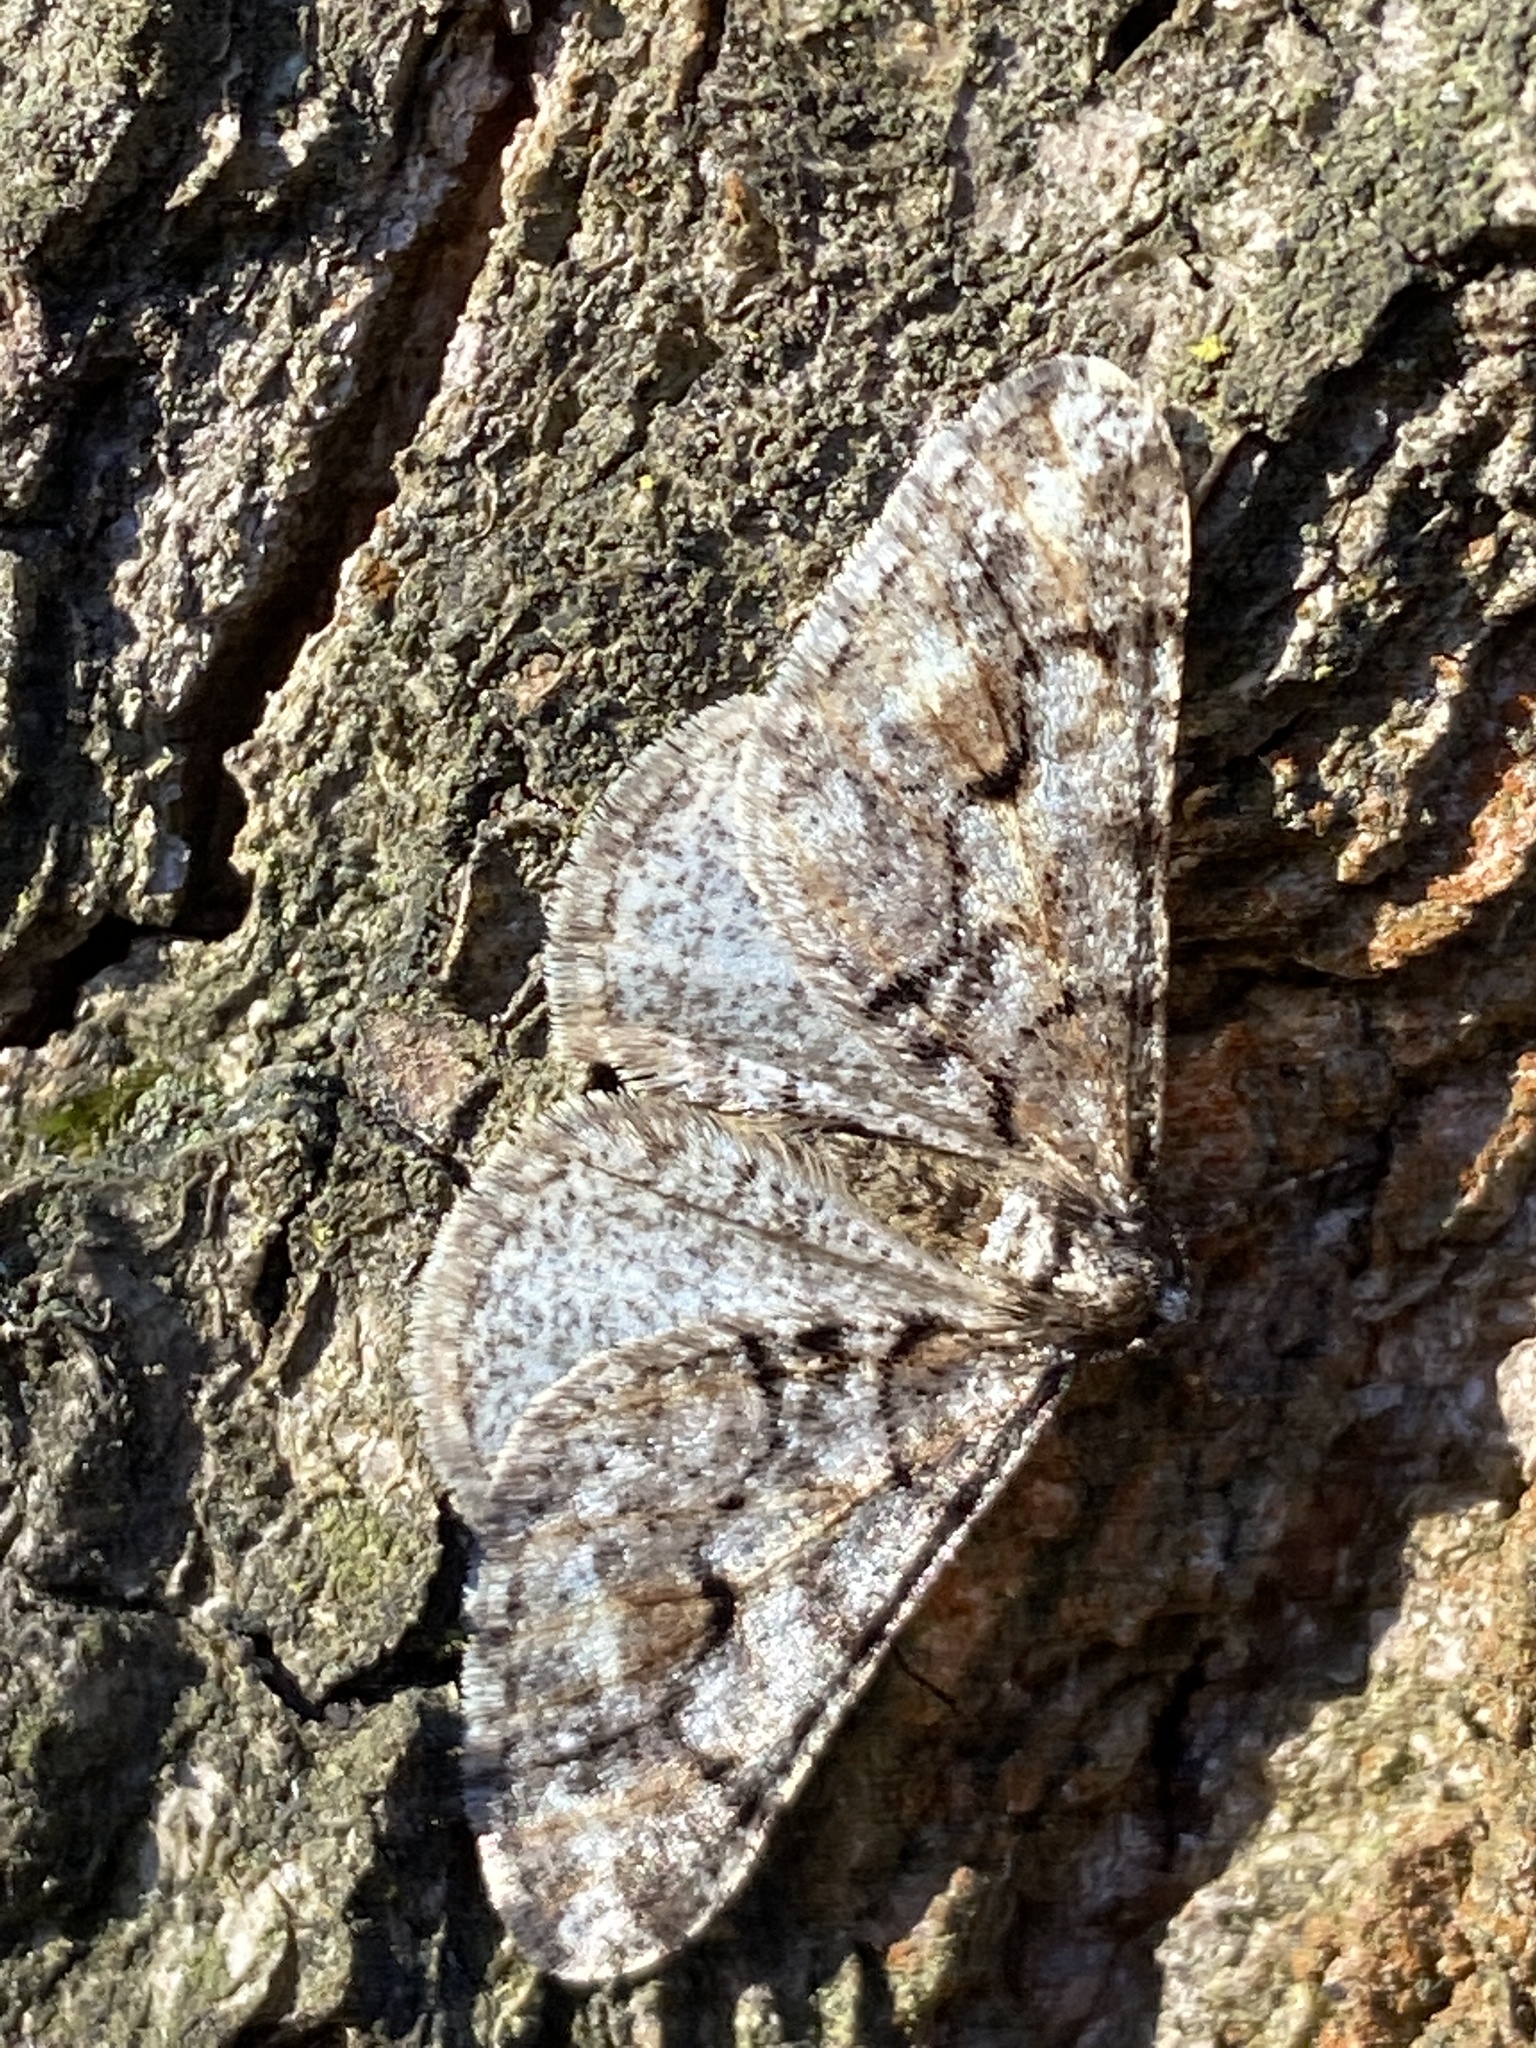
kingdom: Animalia
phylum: Arthropoda
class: Insecta
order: Lepidoptera
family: Geometridae
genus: Agriopis
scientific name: Agriopis leucophaearia
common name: Spring usher
